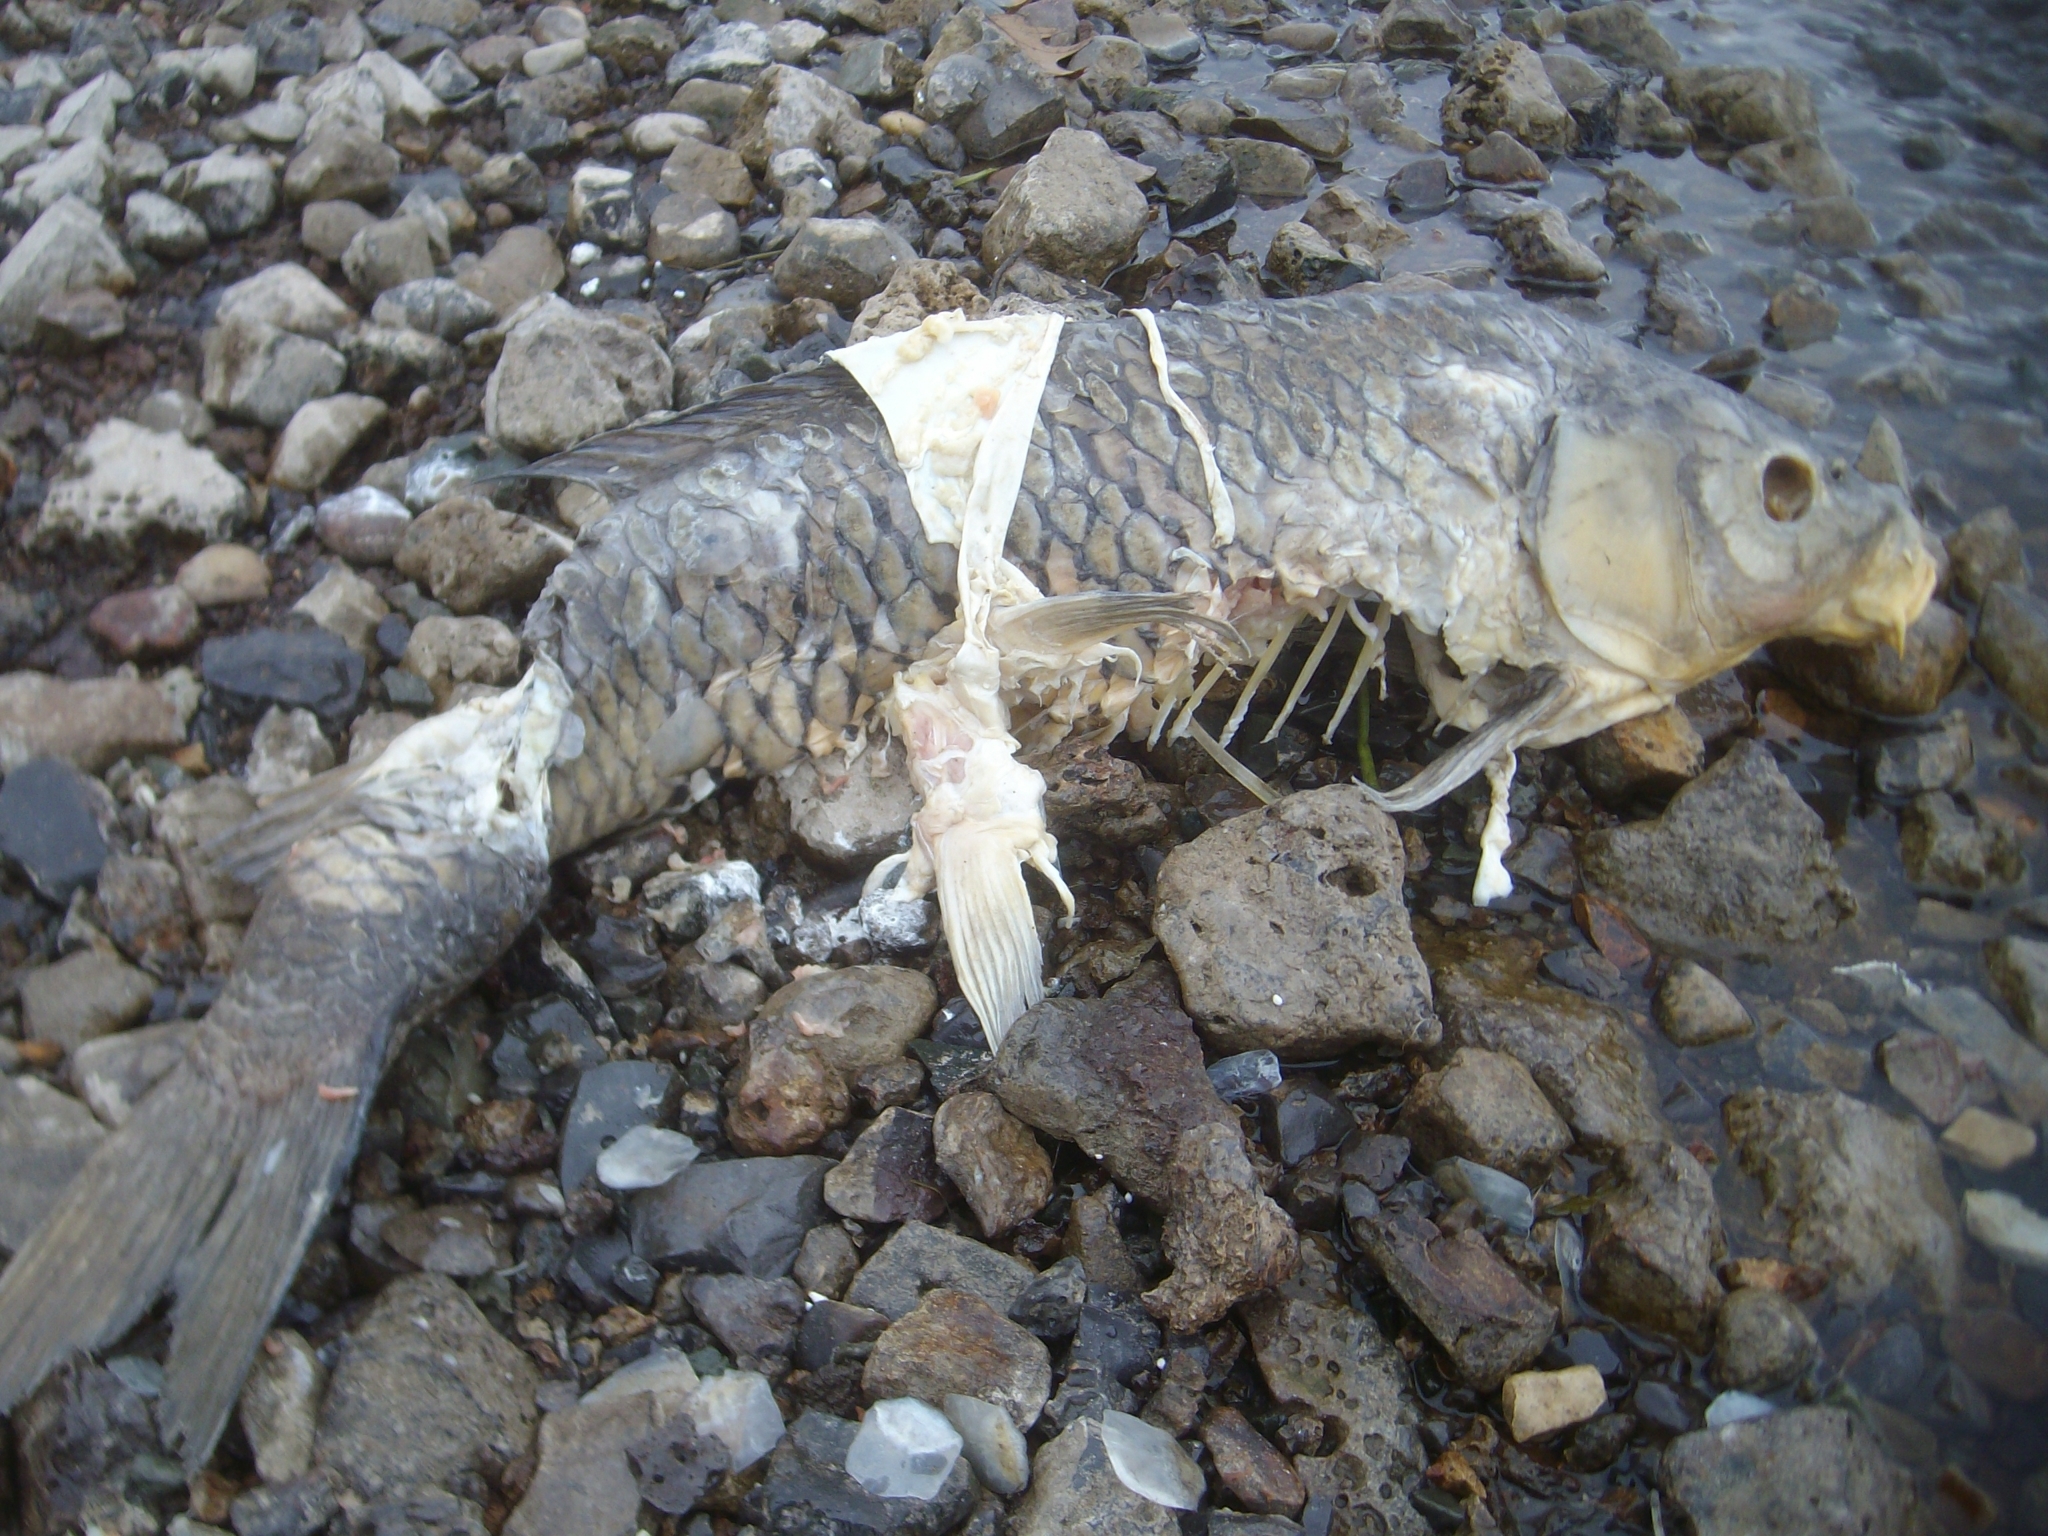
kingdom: Animalia
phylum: Chordata
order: Cypriniformes
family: Cyprinidae
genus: Cyprinus
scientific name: Cyprinus carpio
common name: Common carp
